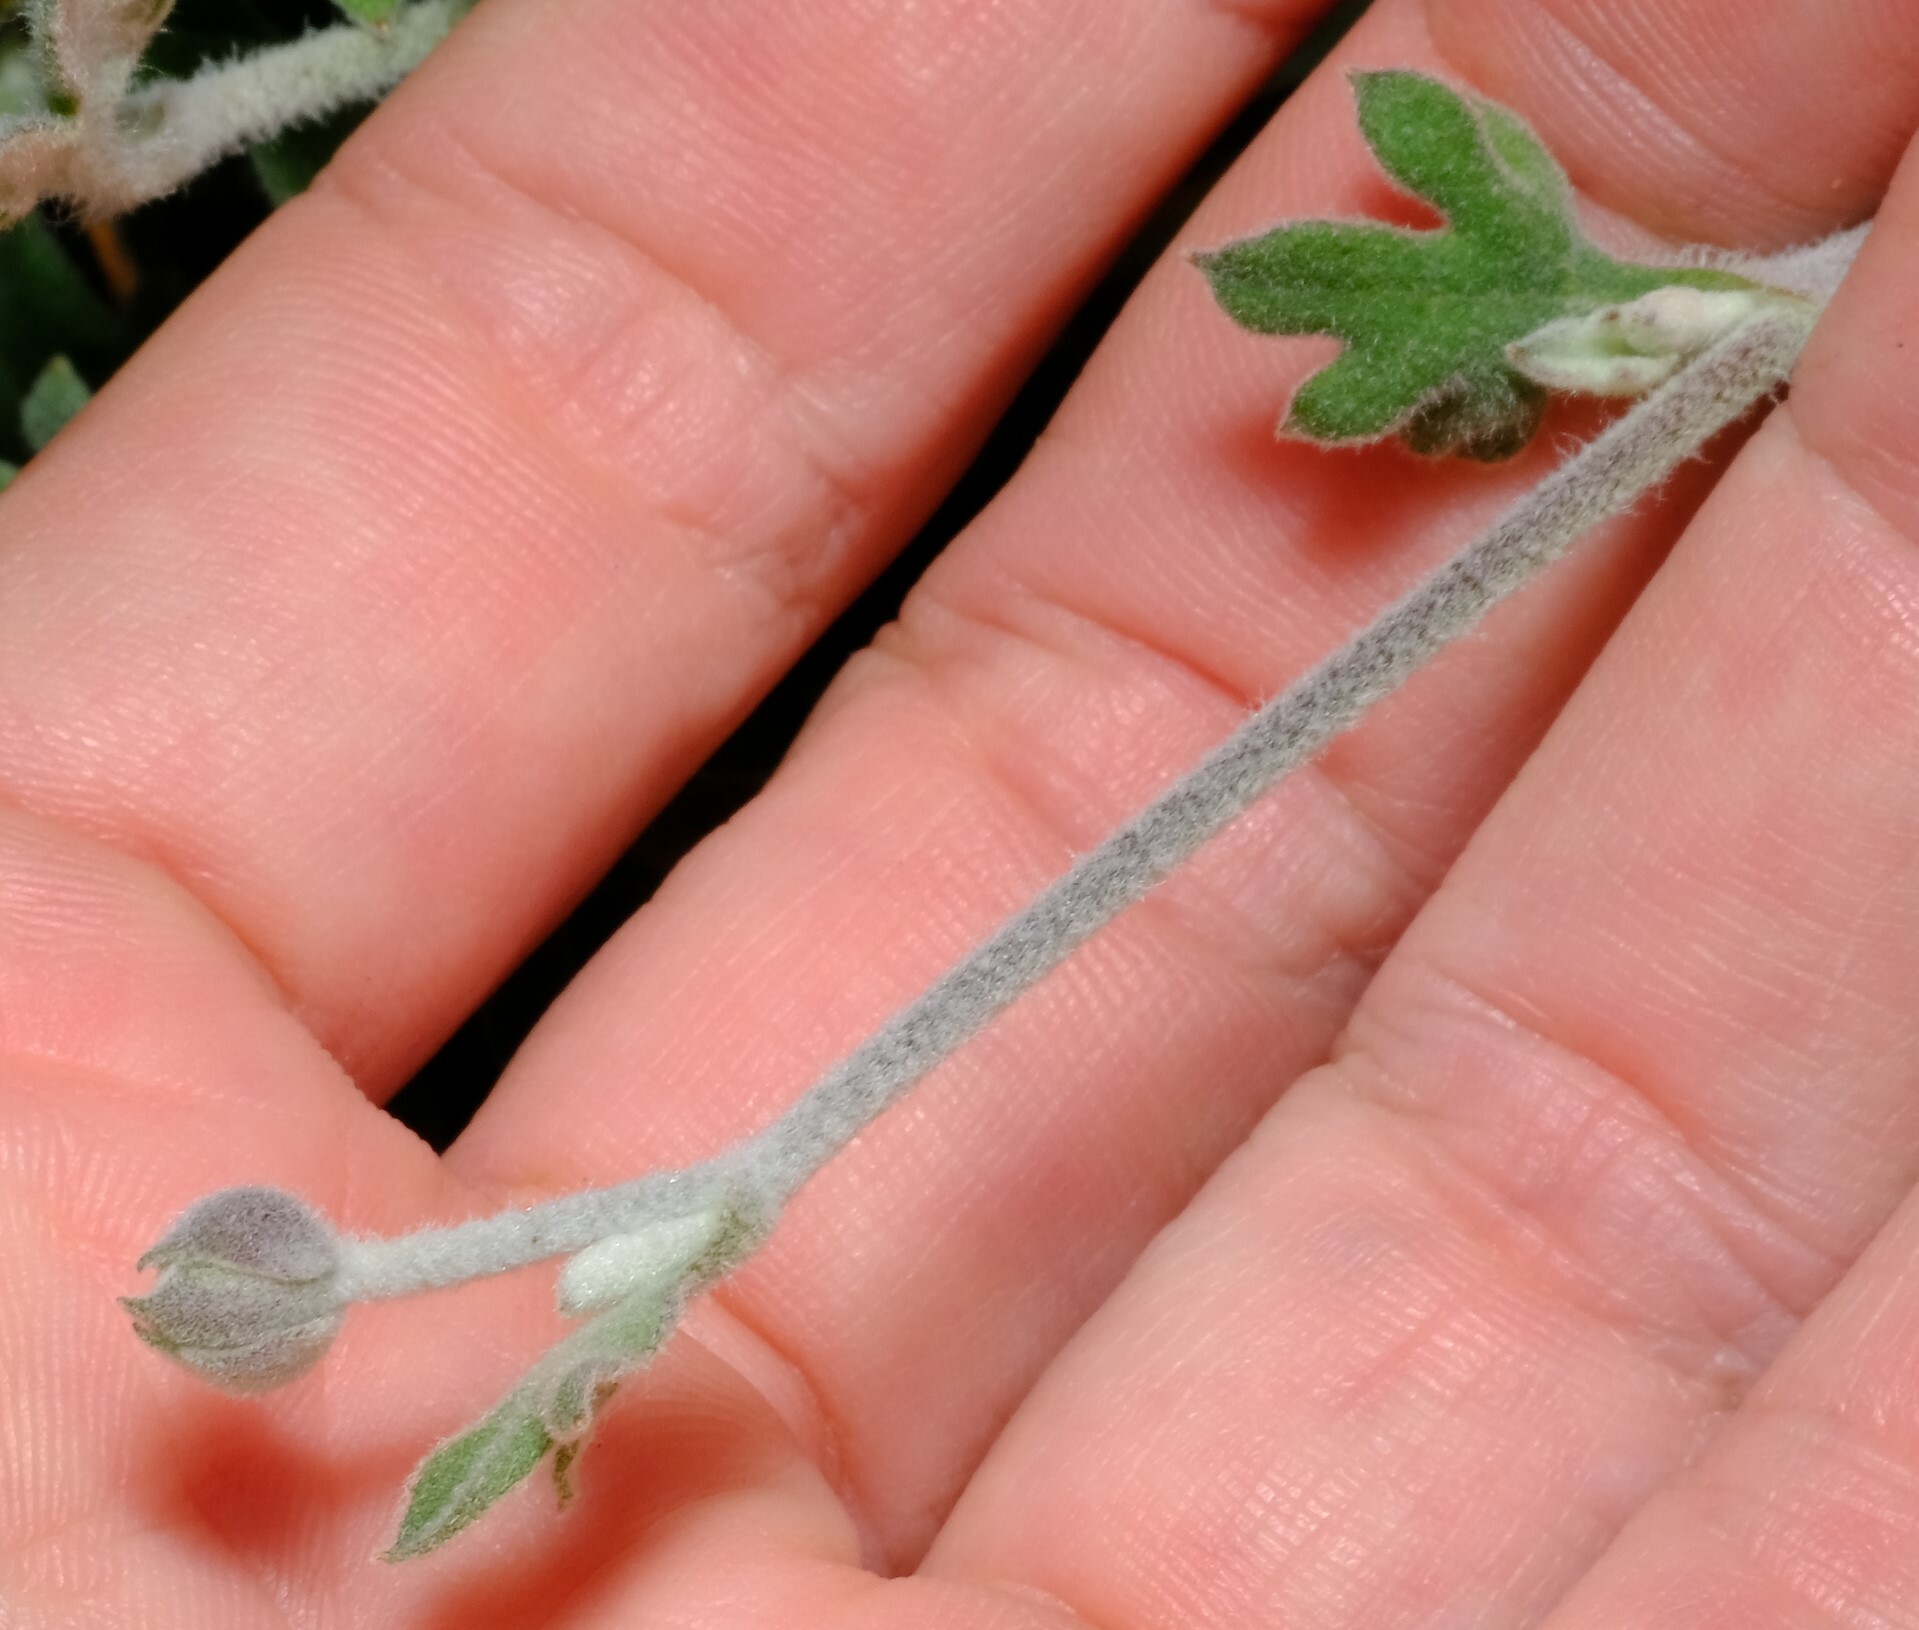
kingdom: Plantae
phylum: Tracheophyta
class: Magnoliopsida
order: Apiales
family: Apiaceae
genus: Xanthosia
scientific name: Xanthosia tomentosa
